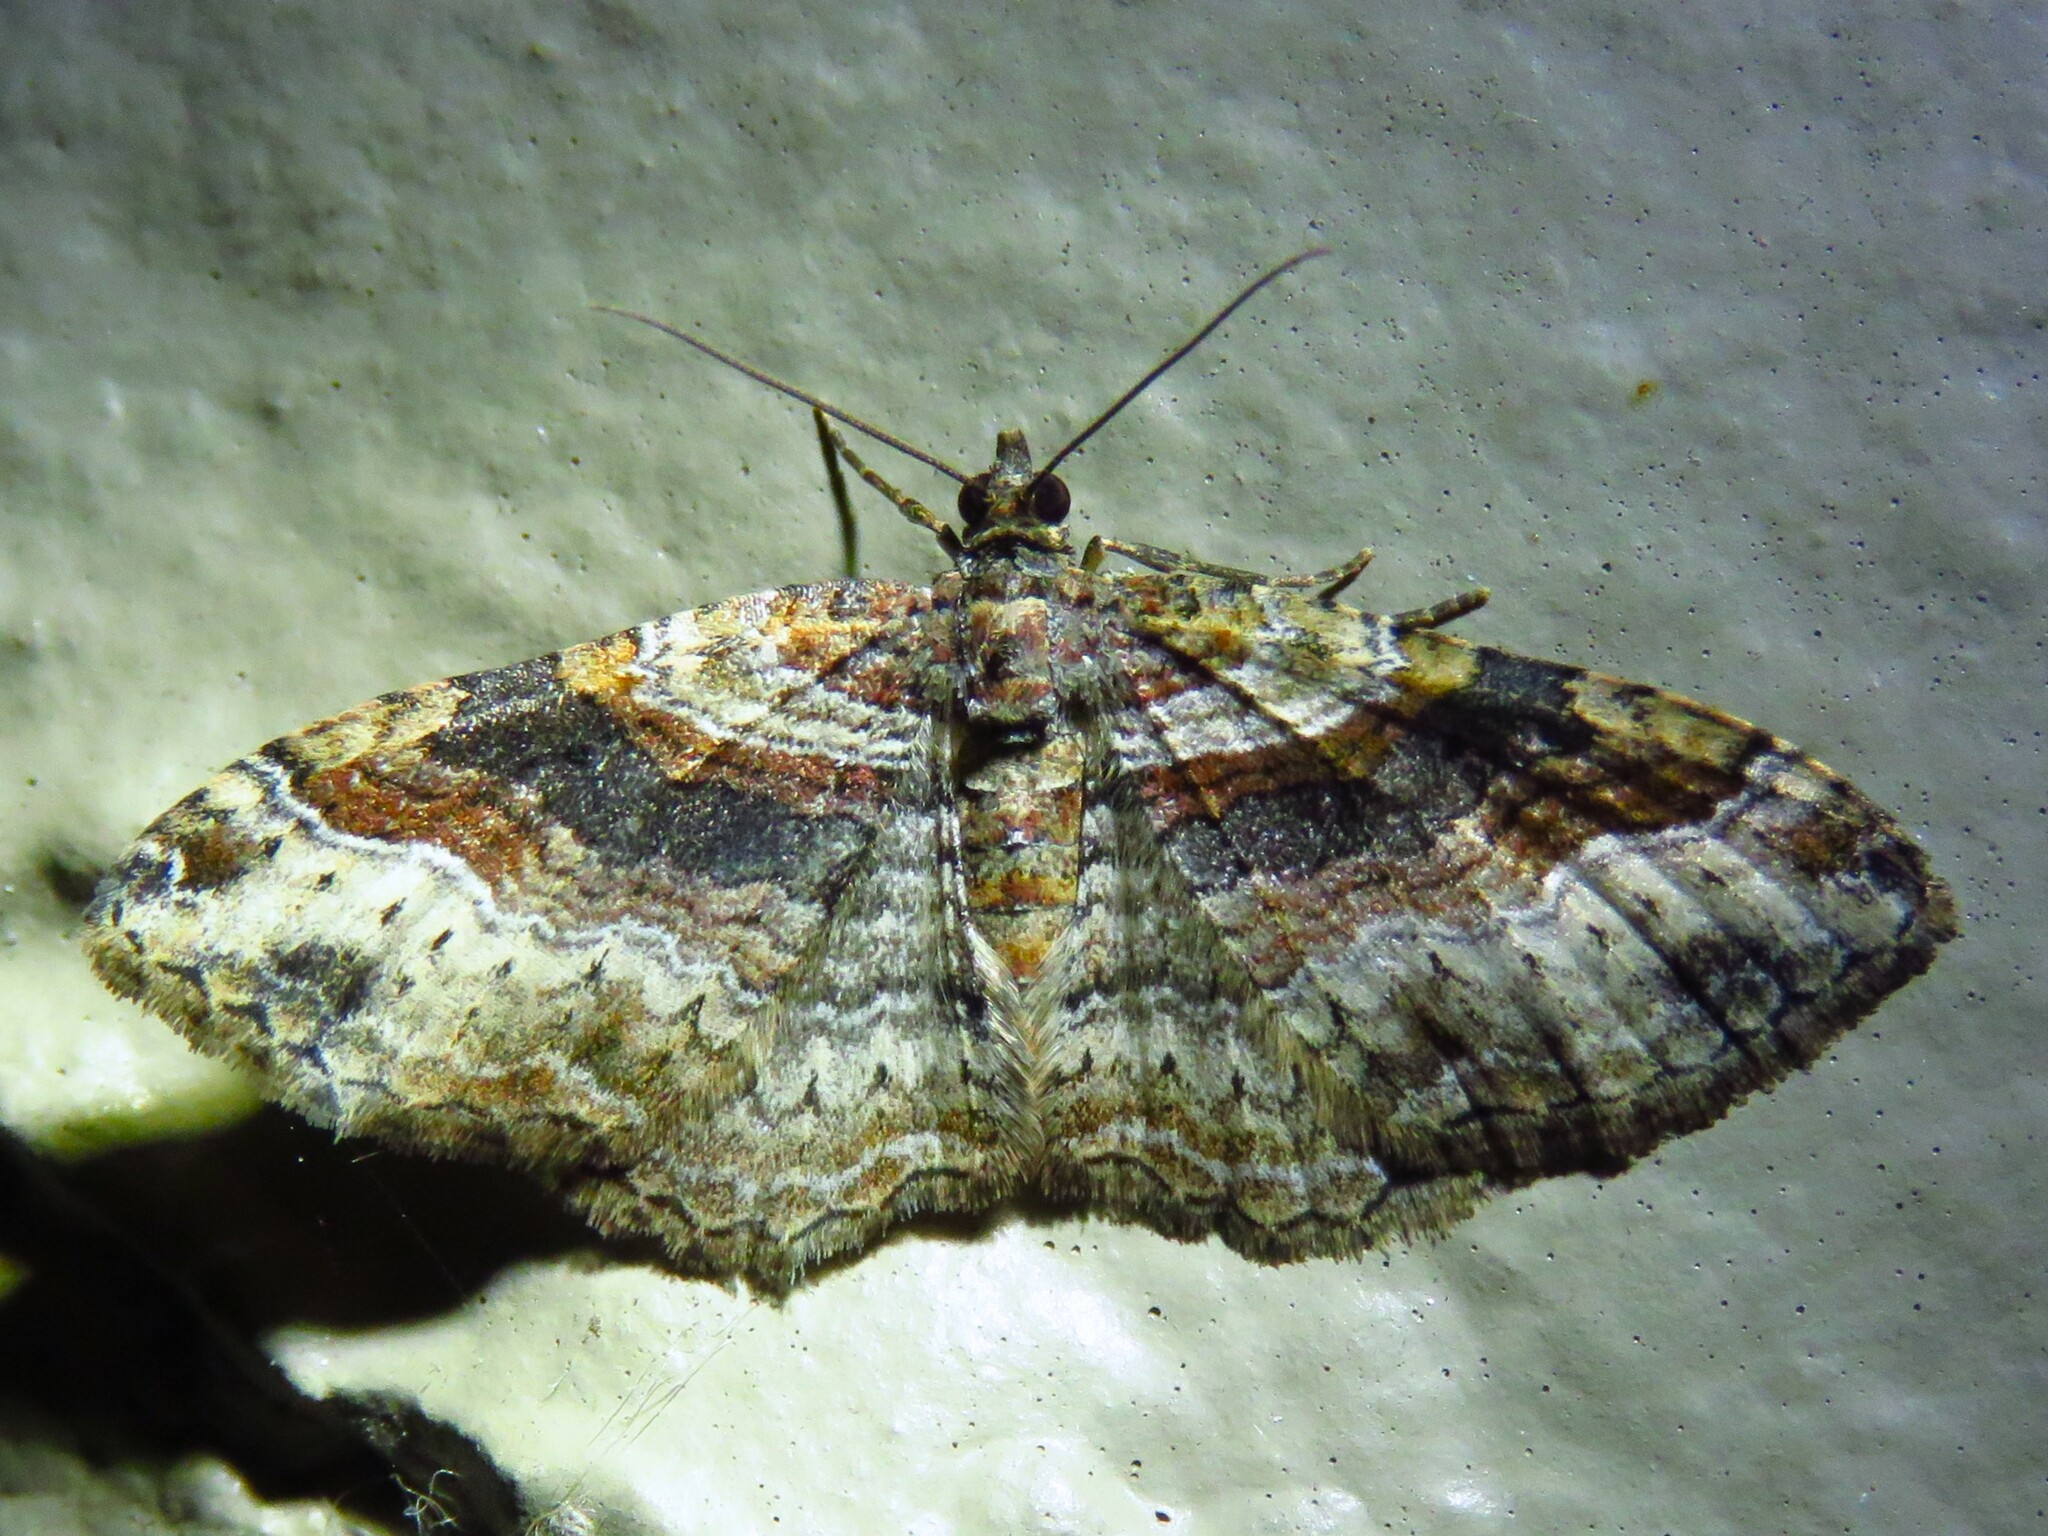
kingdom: Animalia
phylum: Arthropoda
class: Insecta
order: Lepidoptera
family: Geometridae
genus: Costaconvexa
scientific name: Costaconvexa centrostrigaria
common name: Bent-line carpet
